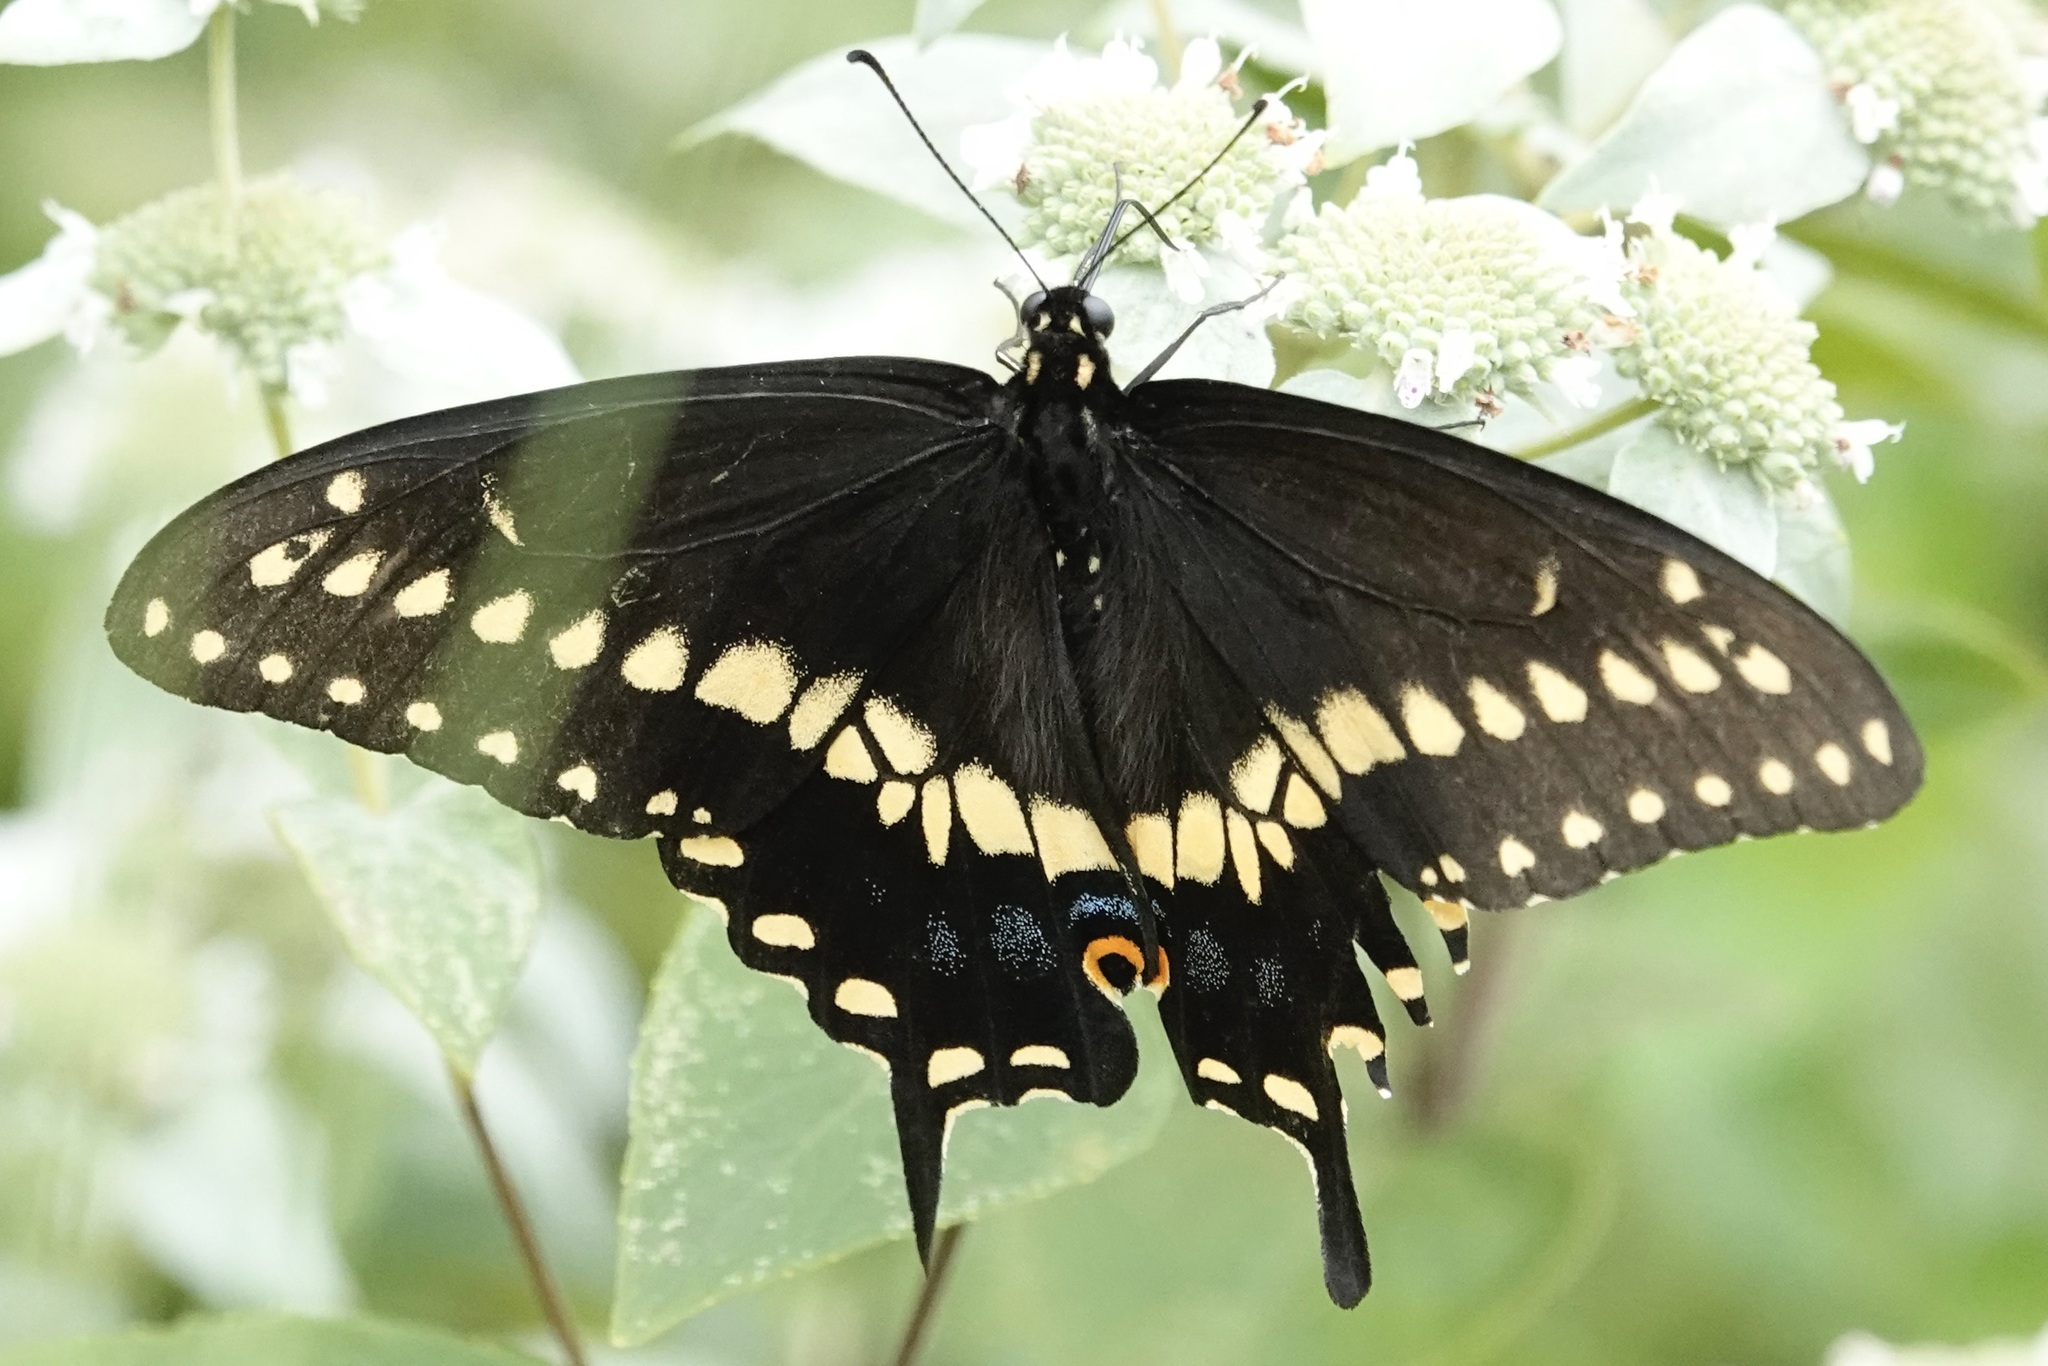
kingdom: Animalia
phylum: Arthropoda
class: Insecta
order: Lepidoptera
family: Papilionidae
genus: Papilio
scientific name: Papilio polyxenes
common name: Black swallowtail
